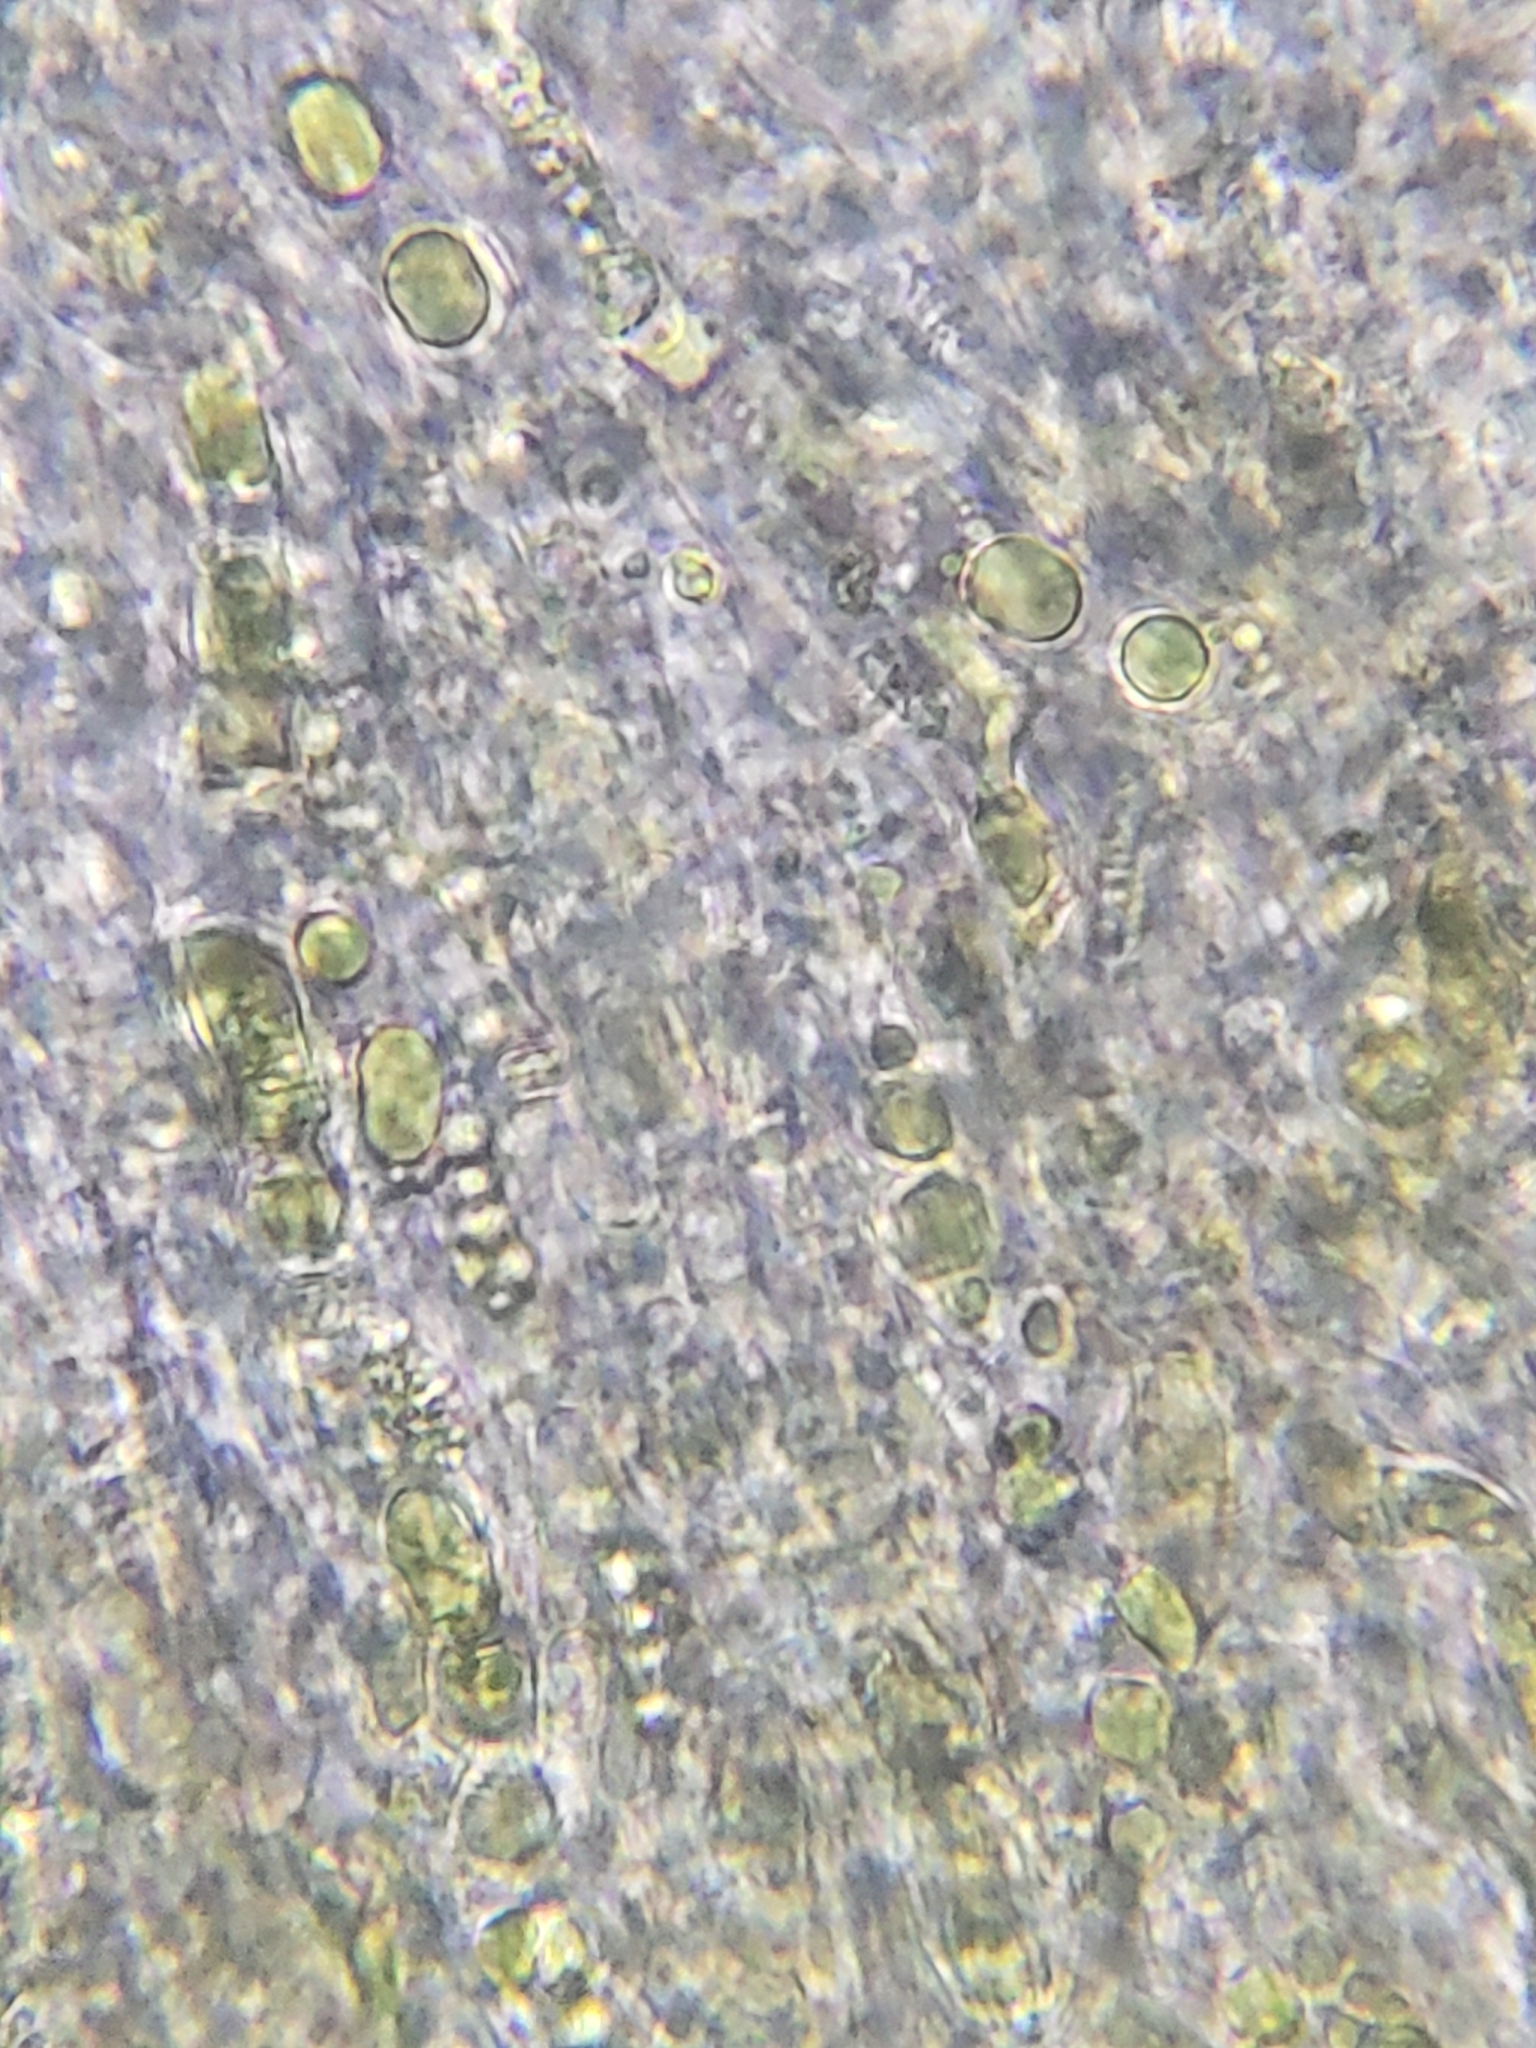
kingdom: Fungi
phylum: Basidiomycota
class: Agaricomycetes
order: Russulales
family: Auriscalpiaceae
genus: Artomyces
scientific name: Artomyces pyxidatus
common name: Crown-tipped coral fungus
